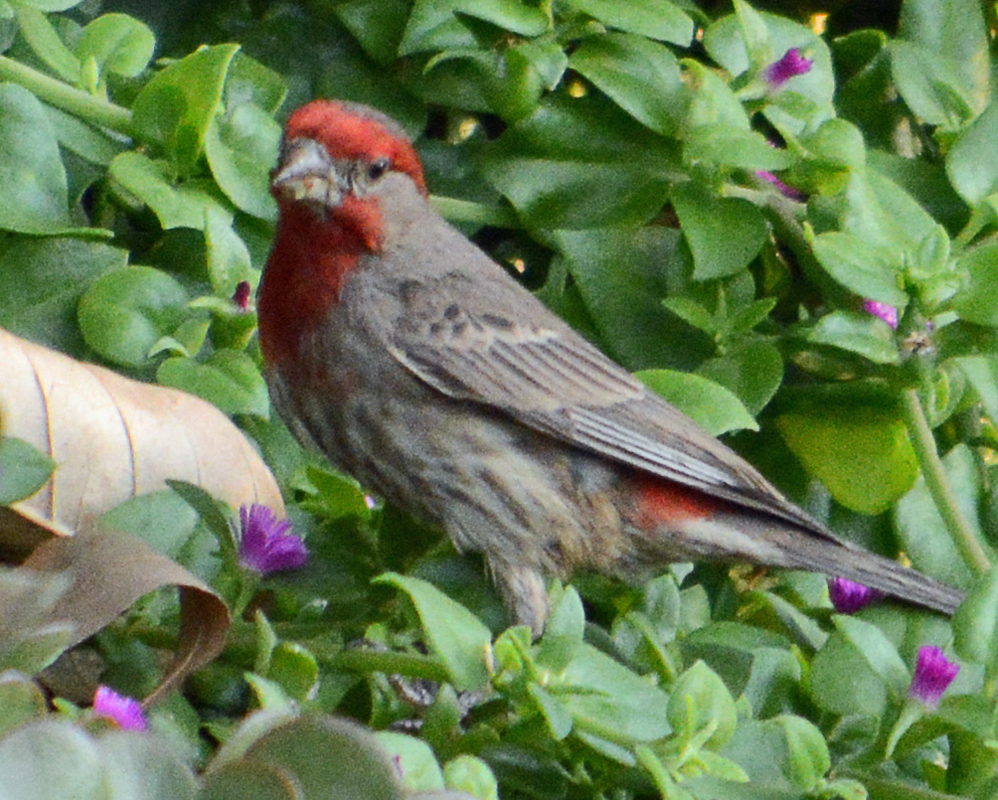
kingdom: Animalia
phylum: Chordata
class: Aves
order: Passeriformes
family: Fringillidae
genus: Haemorhous
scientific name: Haemorhous mexicanus
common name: House finch
